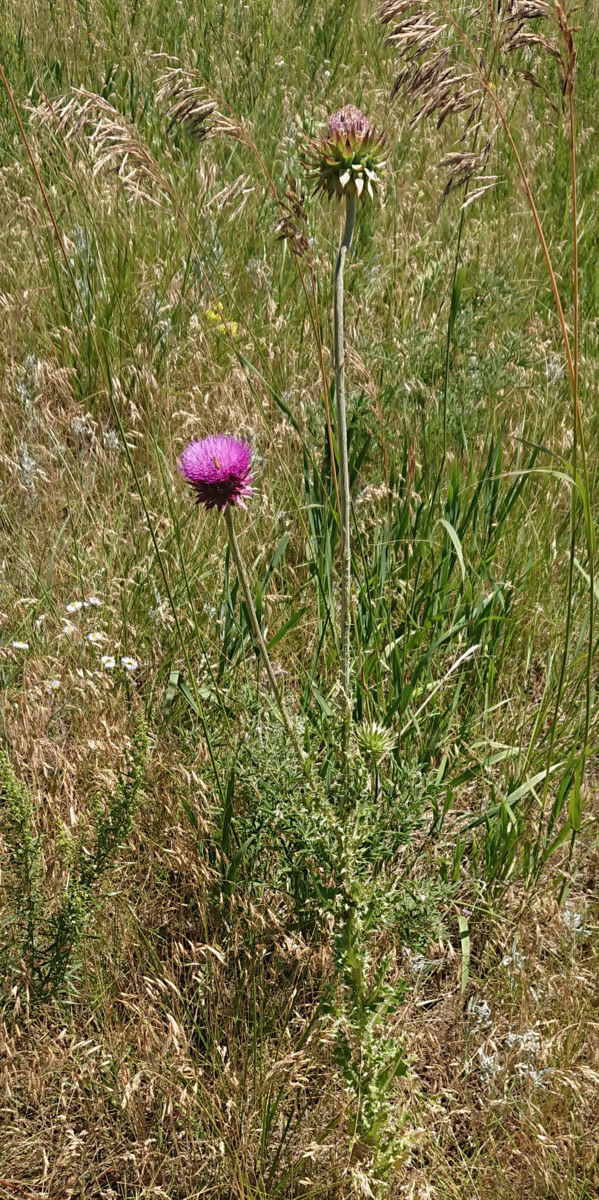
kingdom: Plantae
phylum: Tracheophyta
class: Magnoliopsida
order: Asterales
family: Asteraceae
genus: Carduus
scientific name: Carduus nutans
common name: Musk thistle
